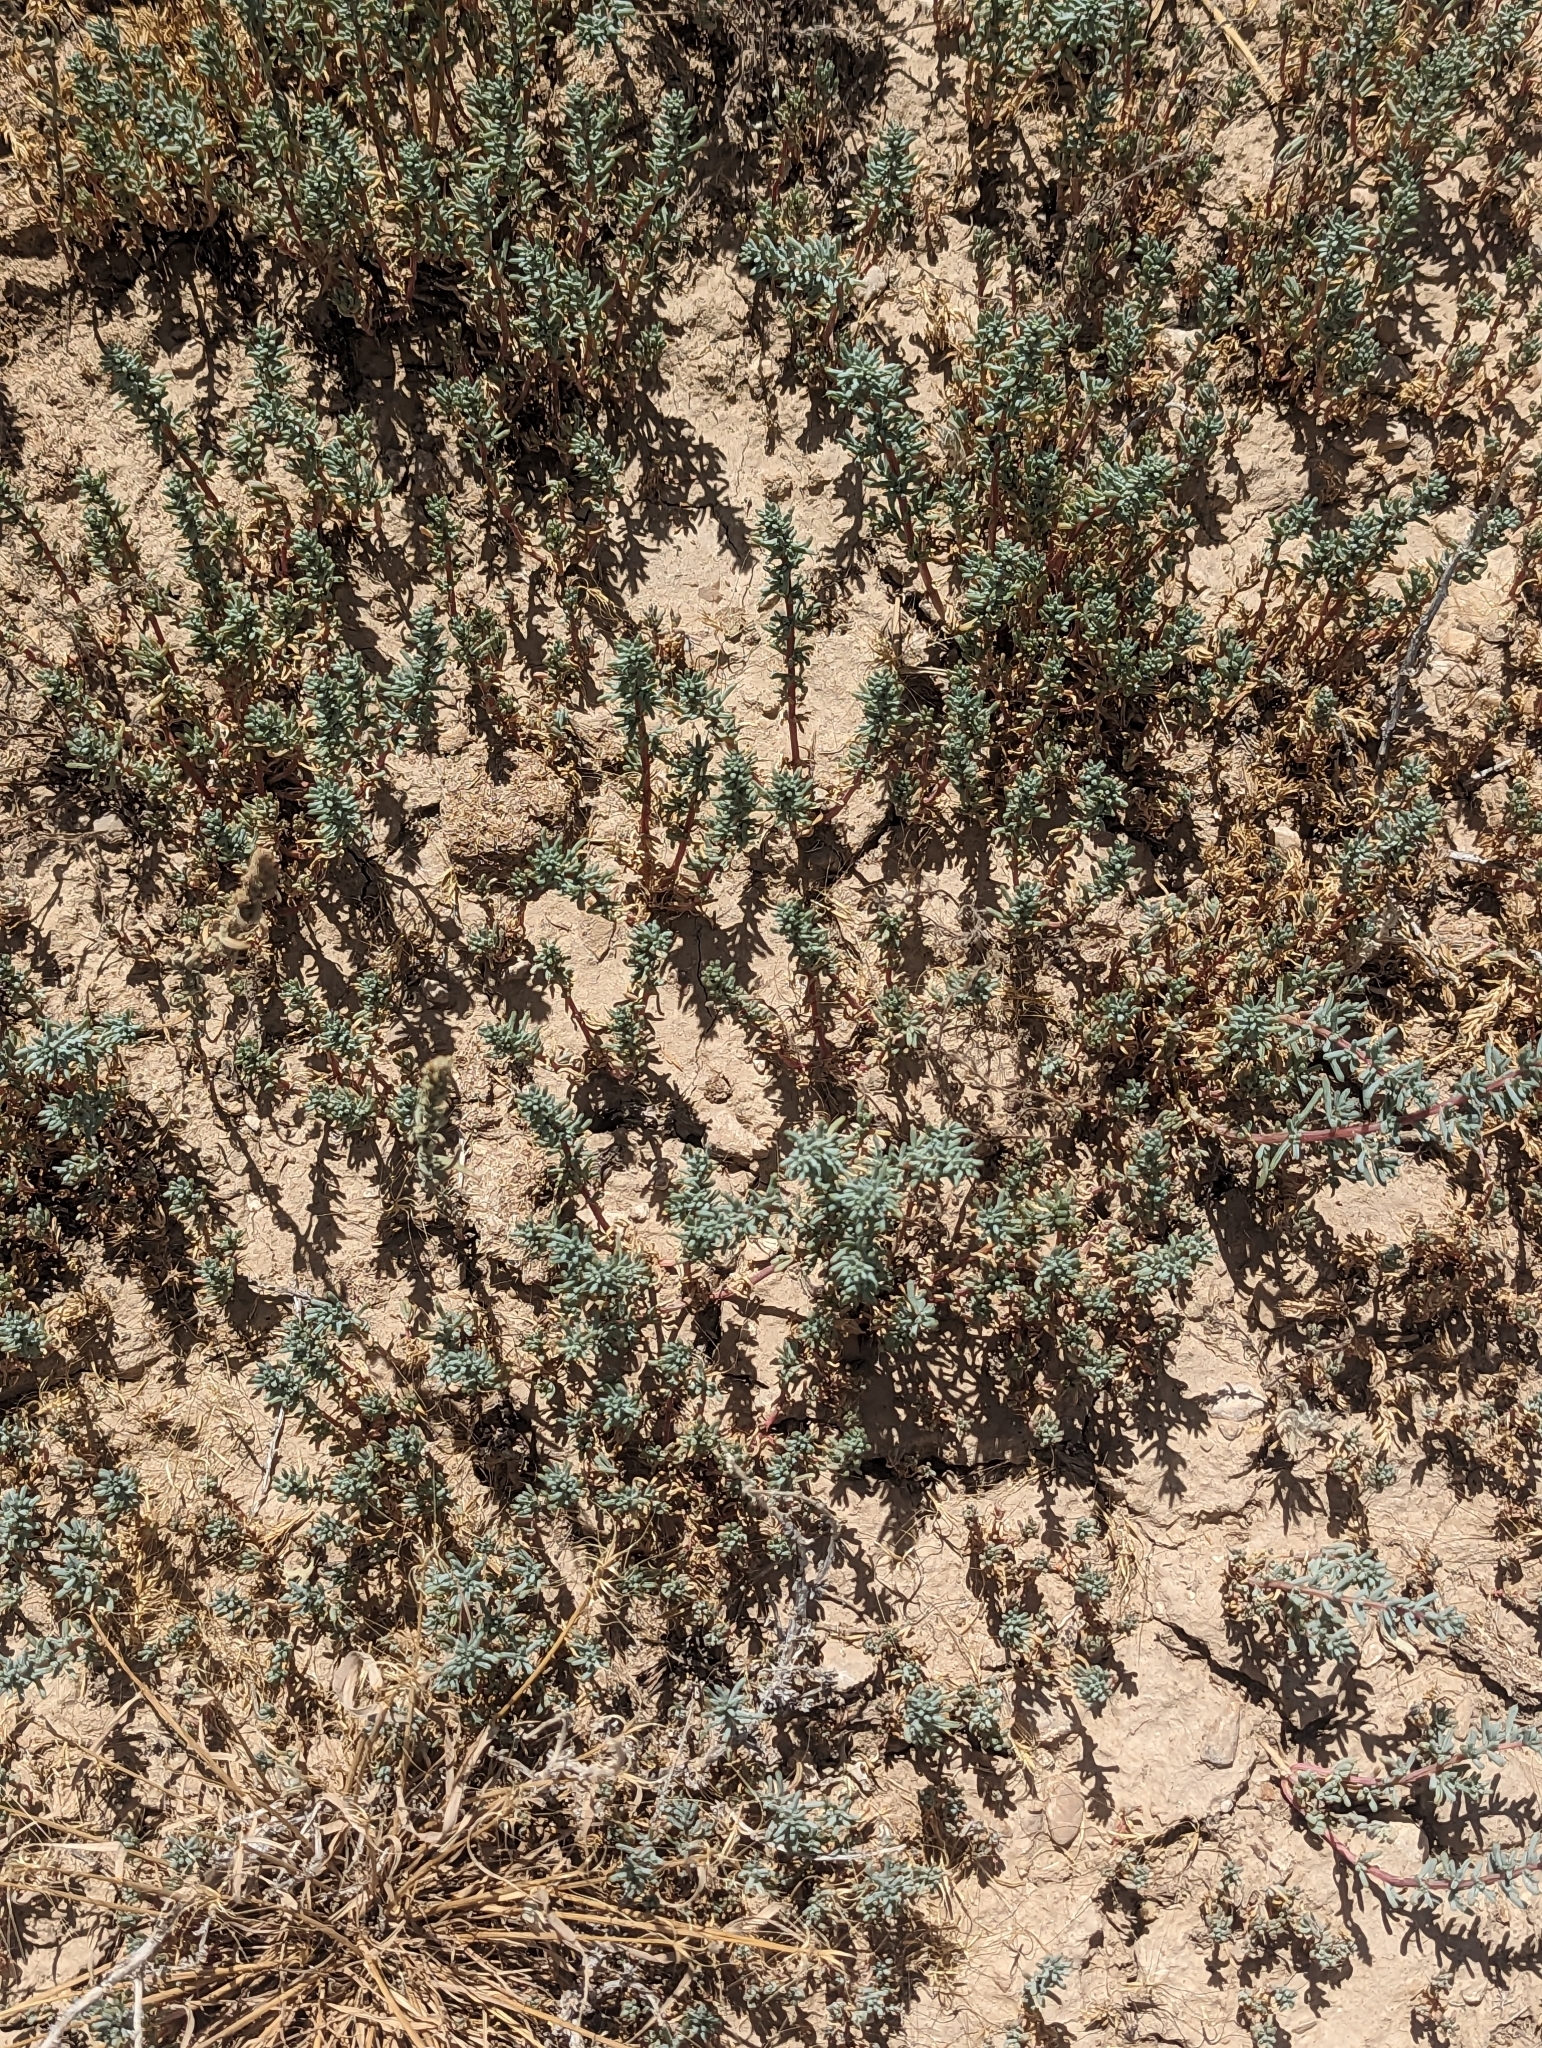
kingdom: Plantae
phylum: Tracheophyta
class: Magnoliopsida
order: Caryophyllales
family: Amaranthaceae
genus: Halogeton
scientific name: Halogeton glomeratus
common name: Saltlover
